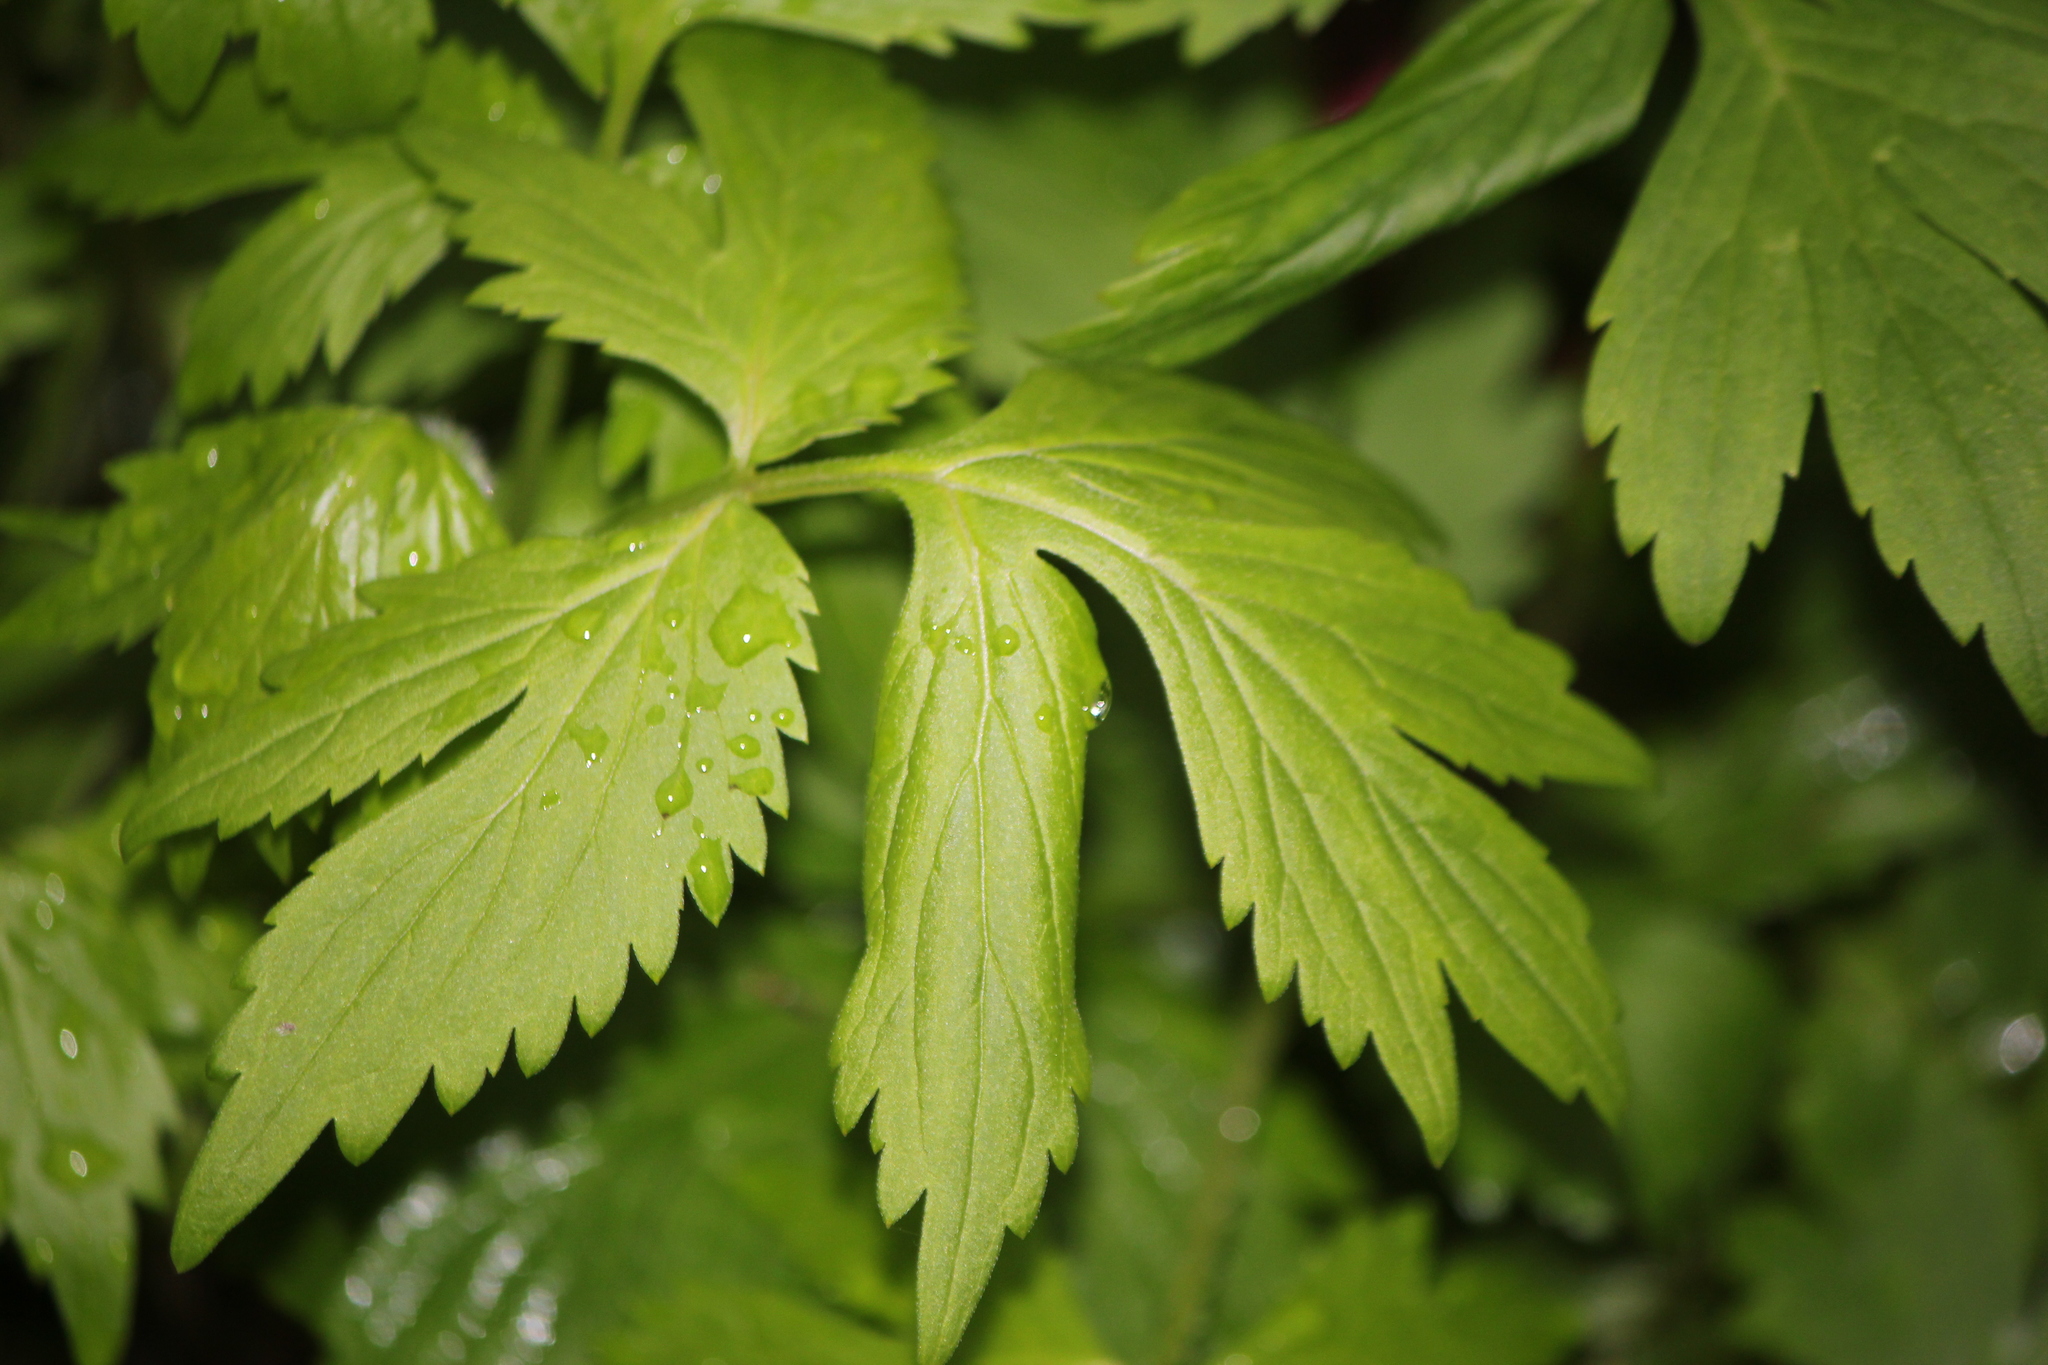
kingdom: Plantae
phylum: Tracheophyta
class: Magnoliopsida
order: Boraginales
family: Hydrophyllaceae
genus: Hydrophyllum
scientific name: Hydrophyllum virginianum
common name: Virginia waterleaf
